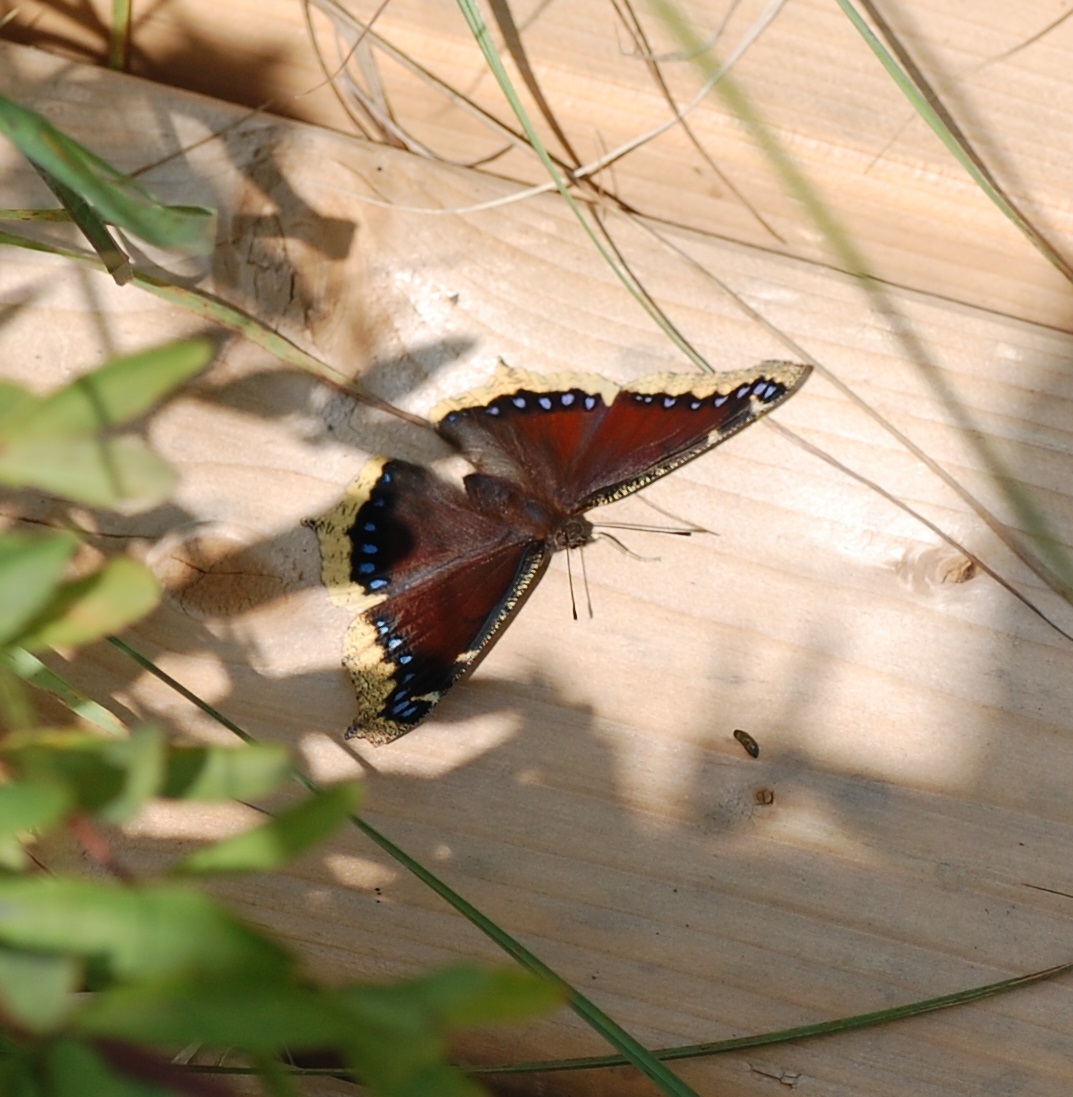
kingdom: Animalia
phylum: Arthropoda
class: Insecta
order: Lepidoptera
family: Nymphalidae
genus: Nymphalis
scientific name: Nymphalis antiopa
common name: Camberwell beauty
